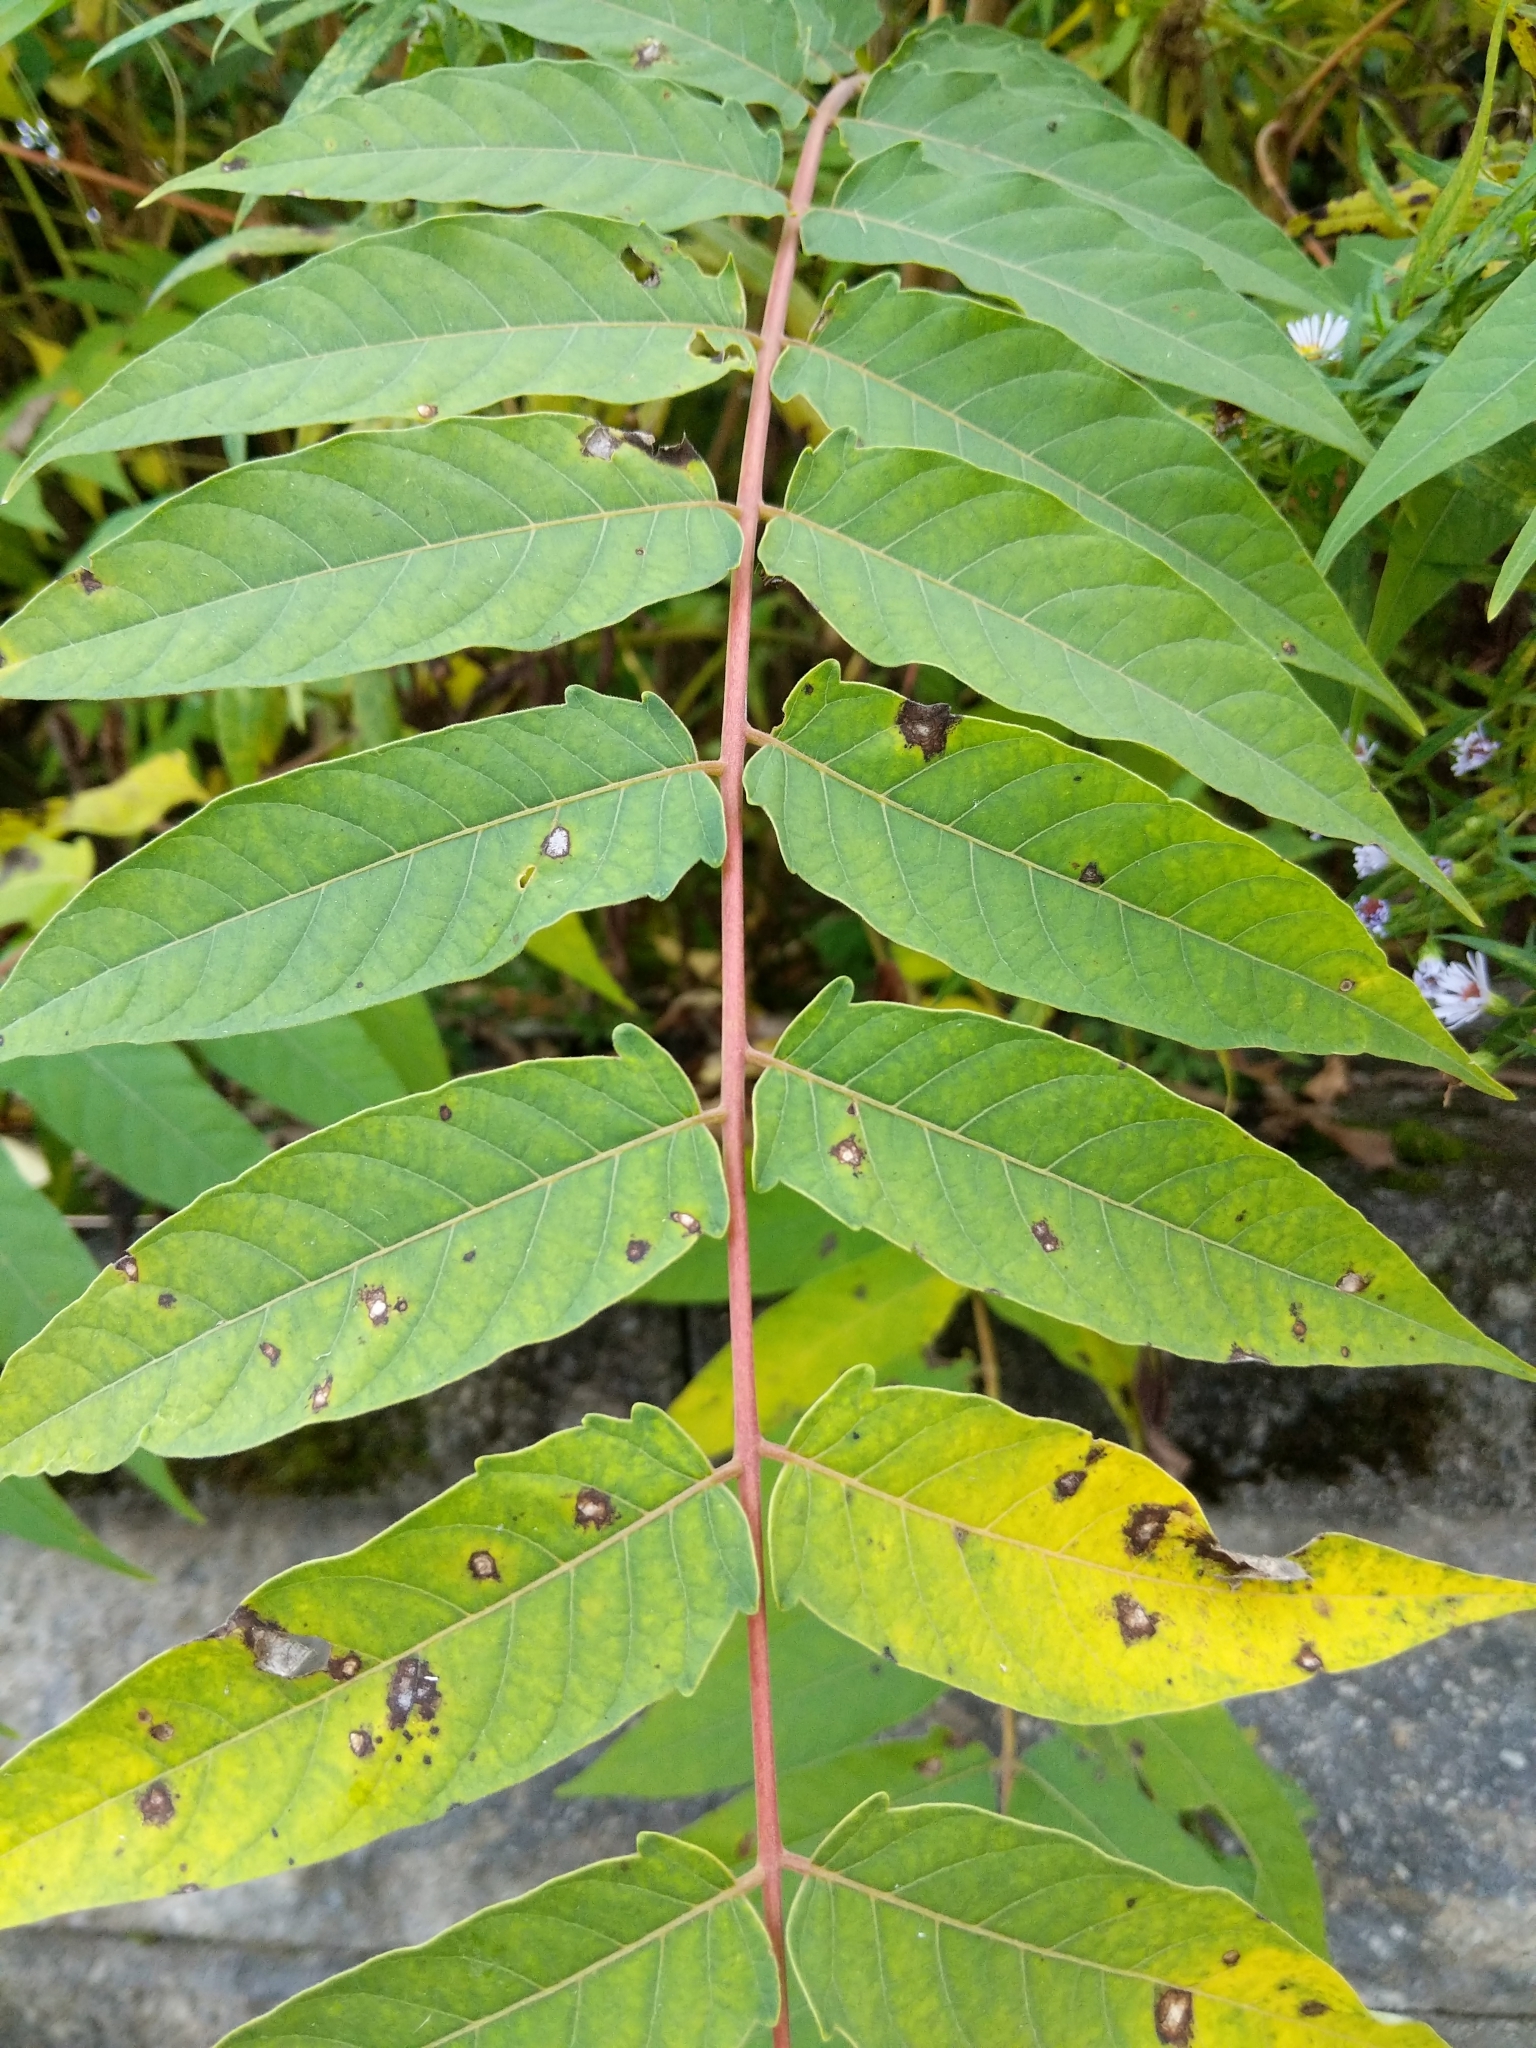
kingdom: Plantae
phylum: Tracheophyta
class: Magnoliopsida
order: Sapindales
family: Simaroubaceae
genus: Ailanthus
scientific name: Ailanthus altissima
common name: Tree-of-heaven
